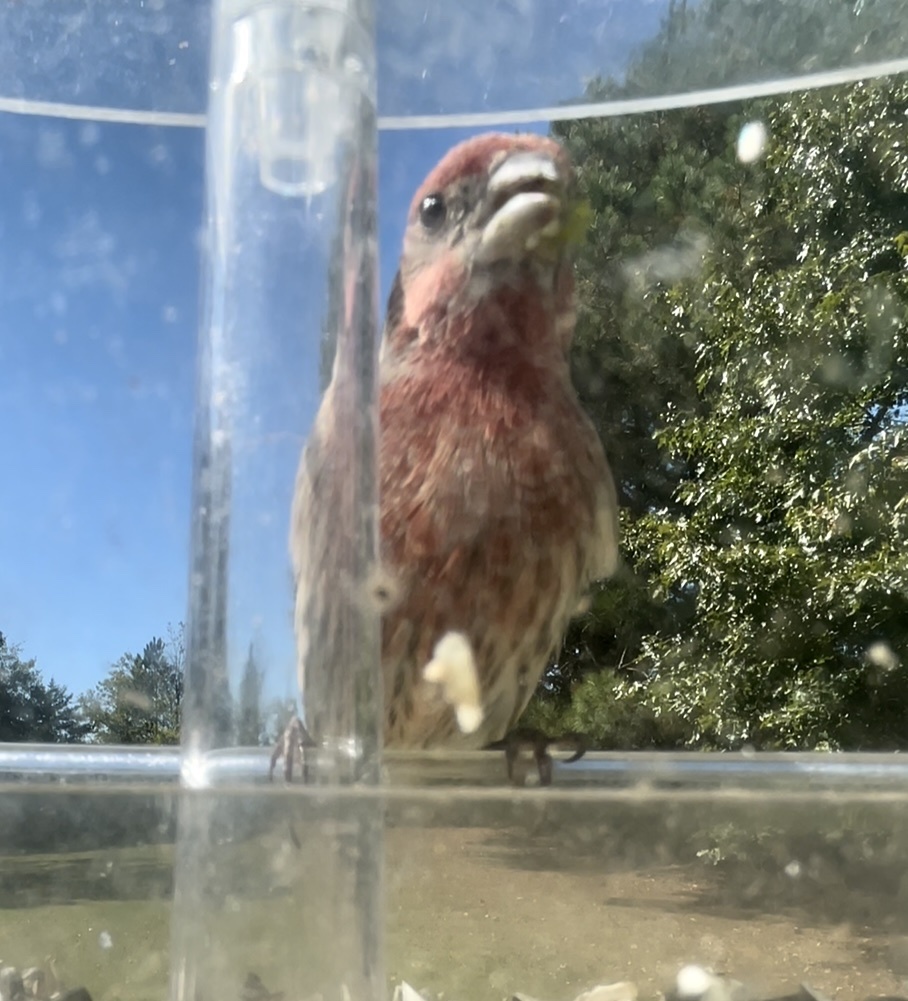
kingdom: Animalia
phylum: Chordata
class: Aves
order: Passeriformes
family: Fringillidae
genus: Haemorhous
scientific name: Haemorhous mexicanus
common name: House finch
